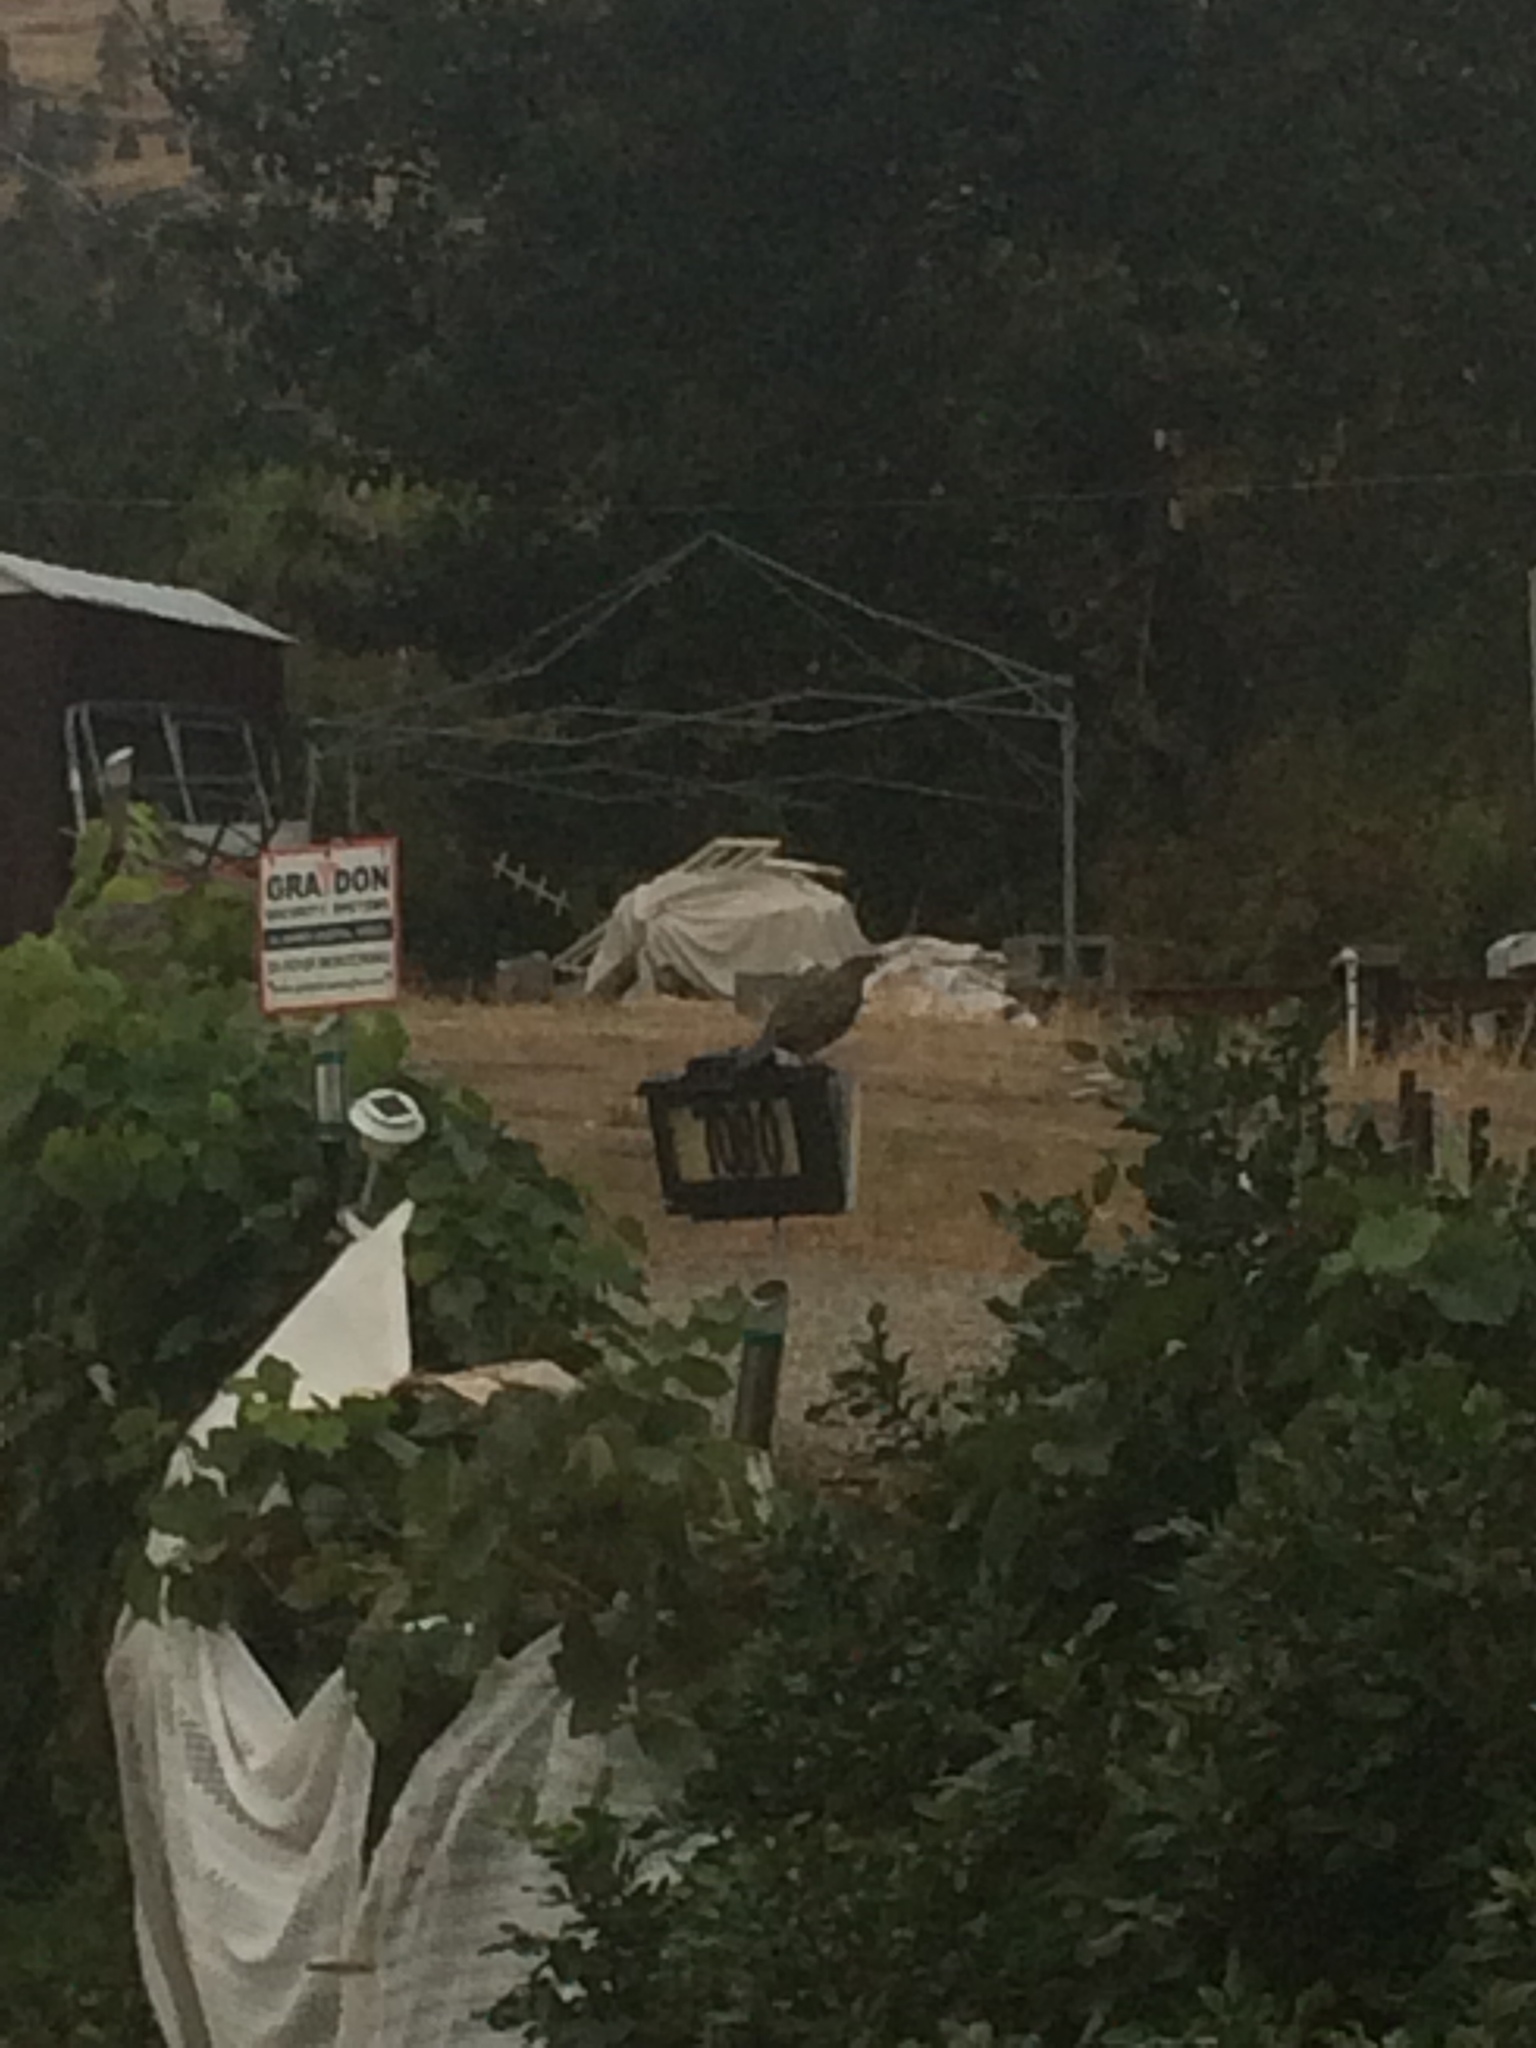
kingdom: Animalia
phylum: Chordata
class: Aves
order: Galliformes
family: Odontophoridae
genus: Callipepla
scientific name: Callipepla californica
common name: California quail
